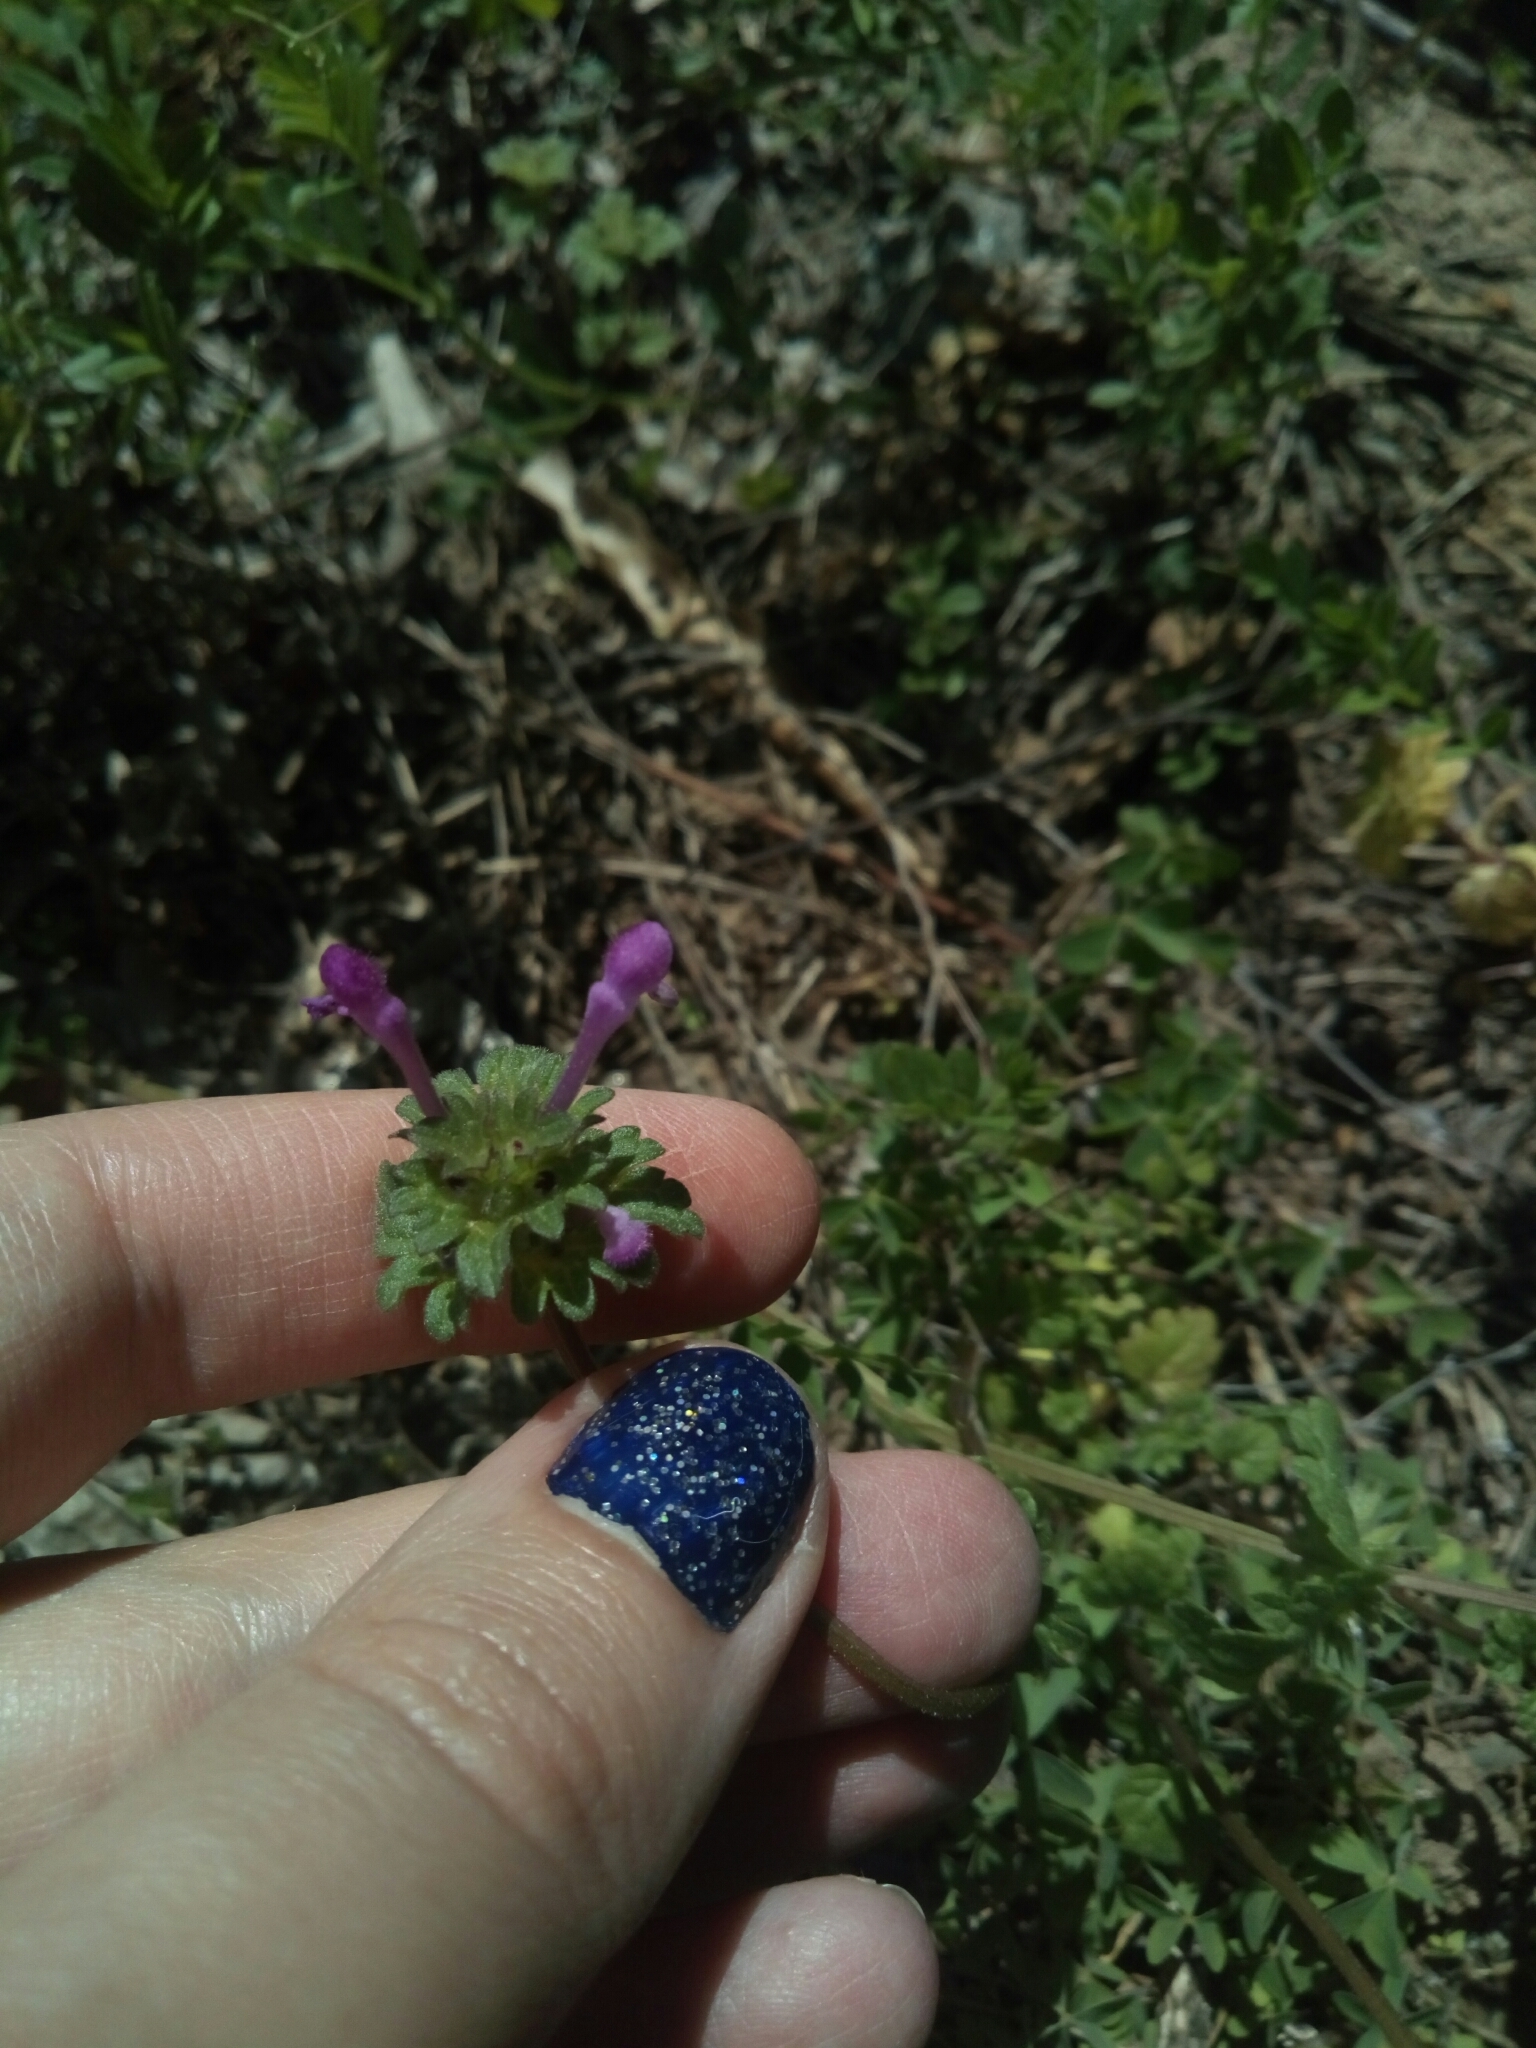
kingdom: Plantae
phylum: Tracheophyta
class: Magnoliopsida
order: Lamiales
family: Lamiaceae
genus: Lamium
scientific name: Lamium amplexicaule
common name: Henbit dead-nettle
